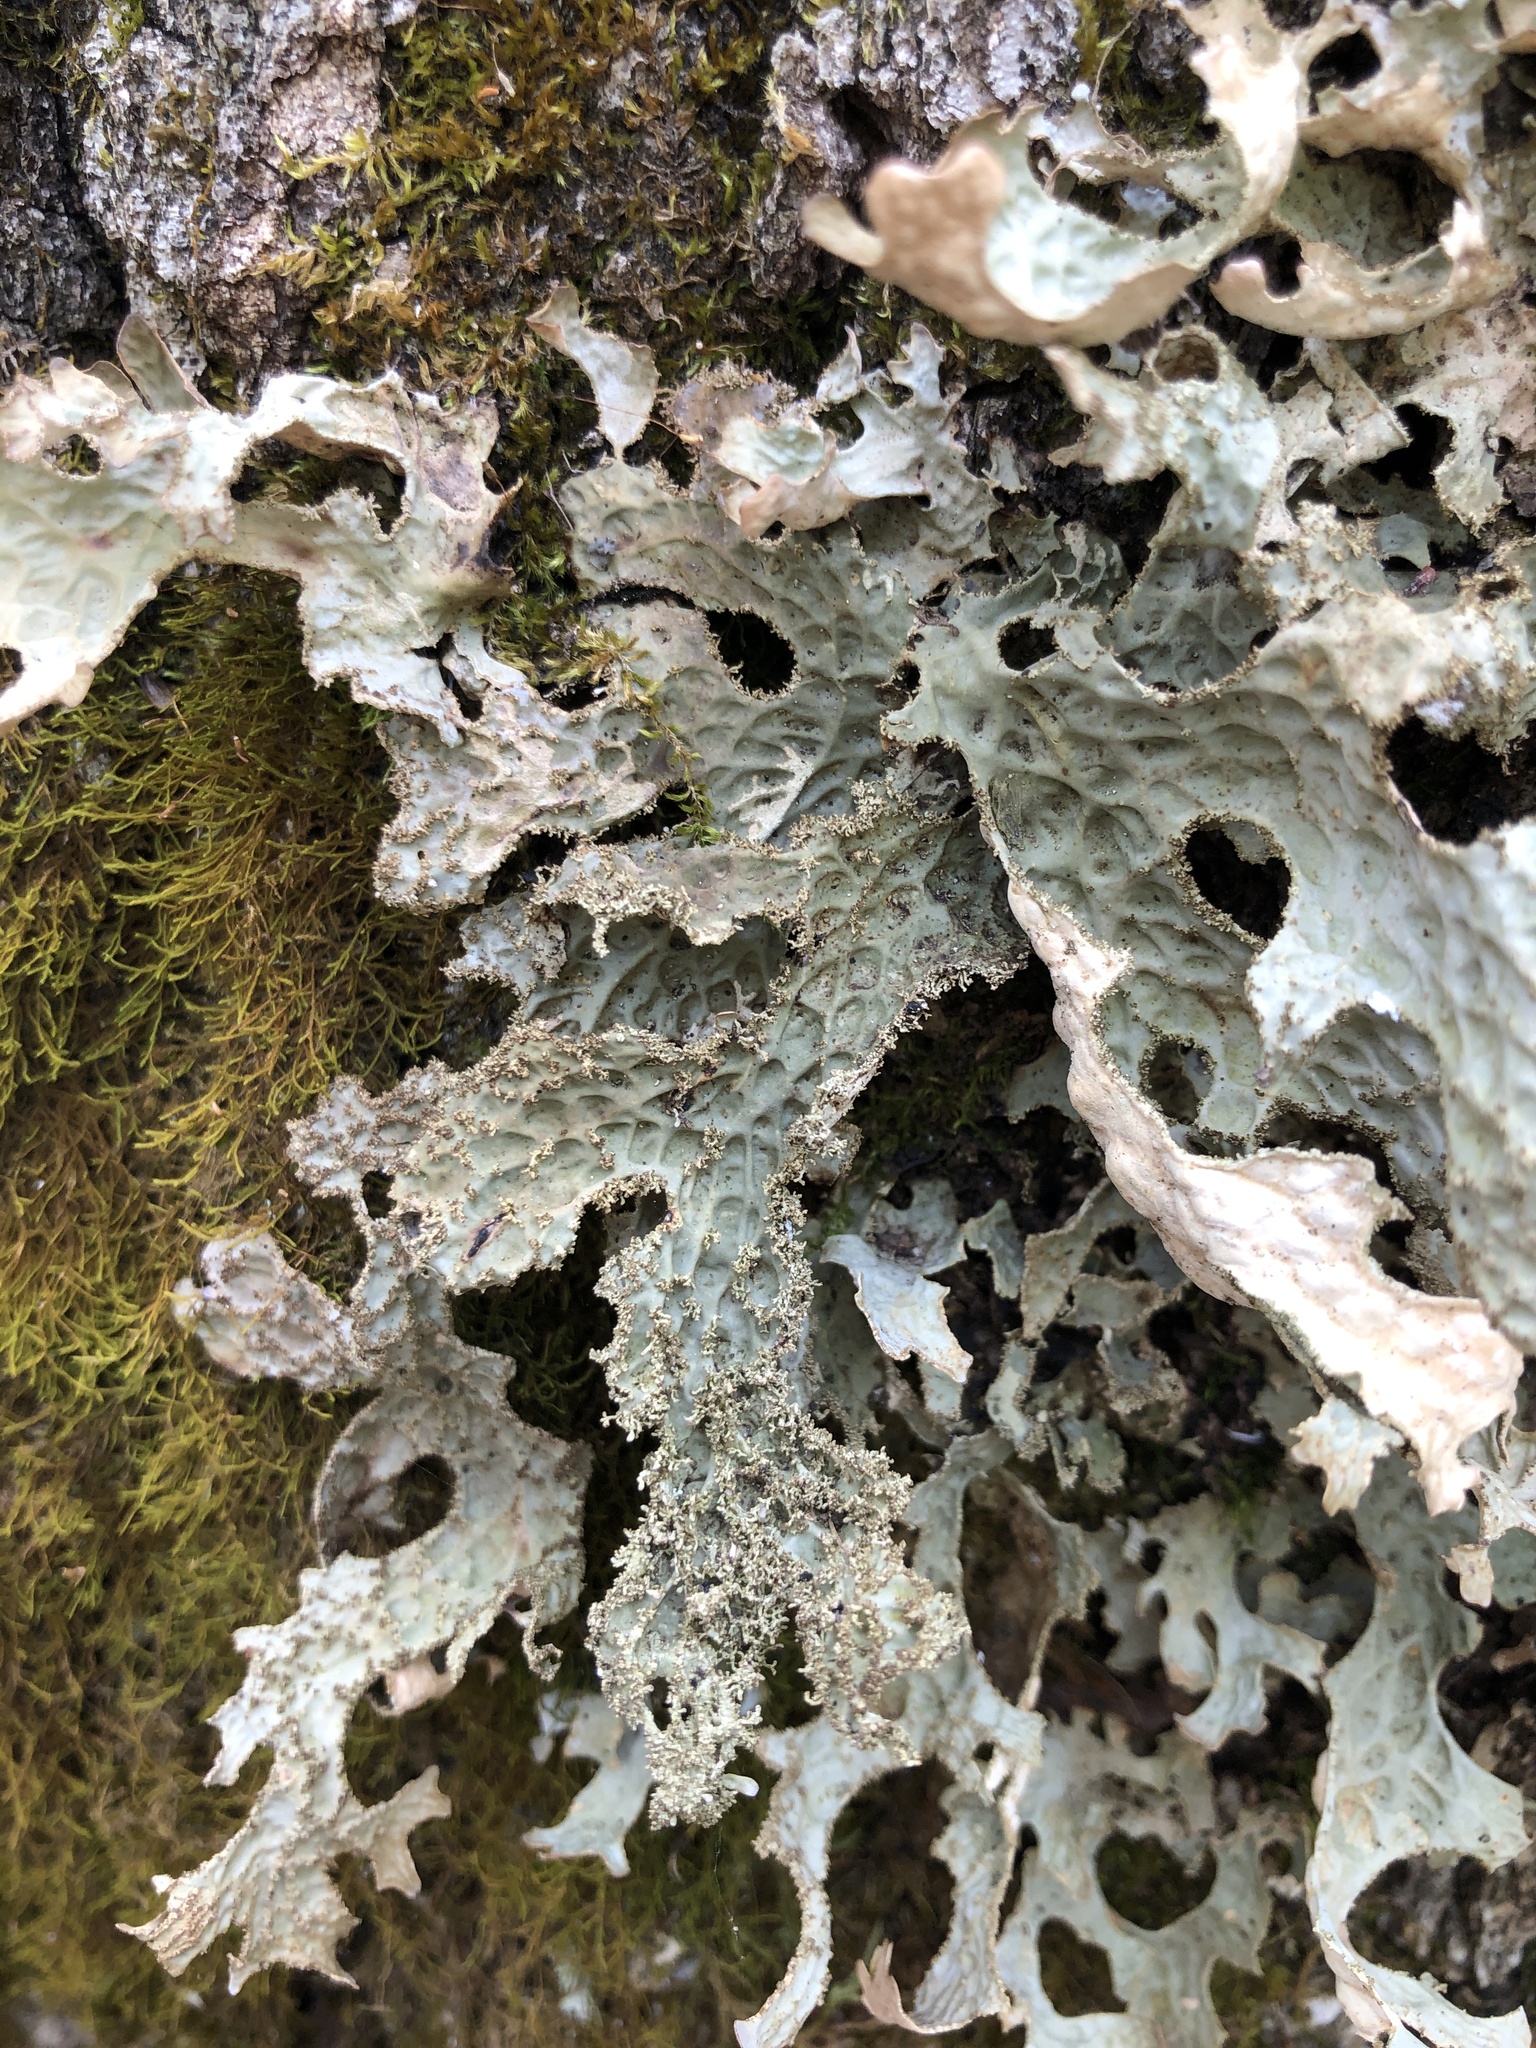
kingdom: Fungi
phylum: Ascomycota
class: Lecanoromycetes
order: Peltigerales
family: Lobariaceae
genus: Lobaria
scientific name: Lobaria pulmonaria
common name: Lungwort
